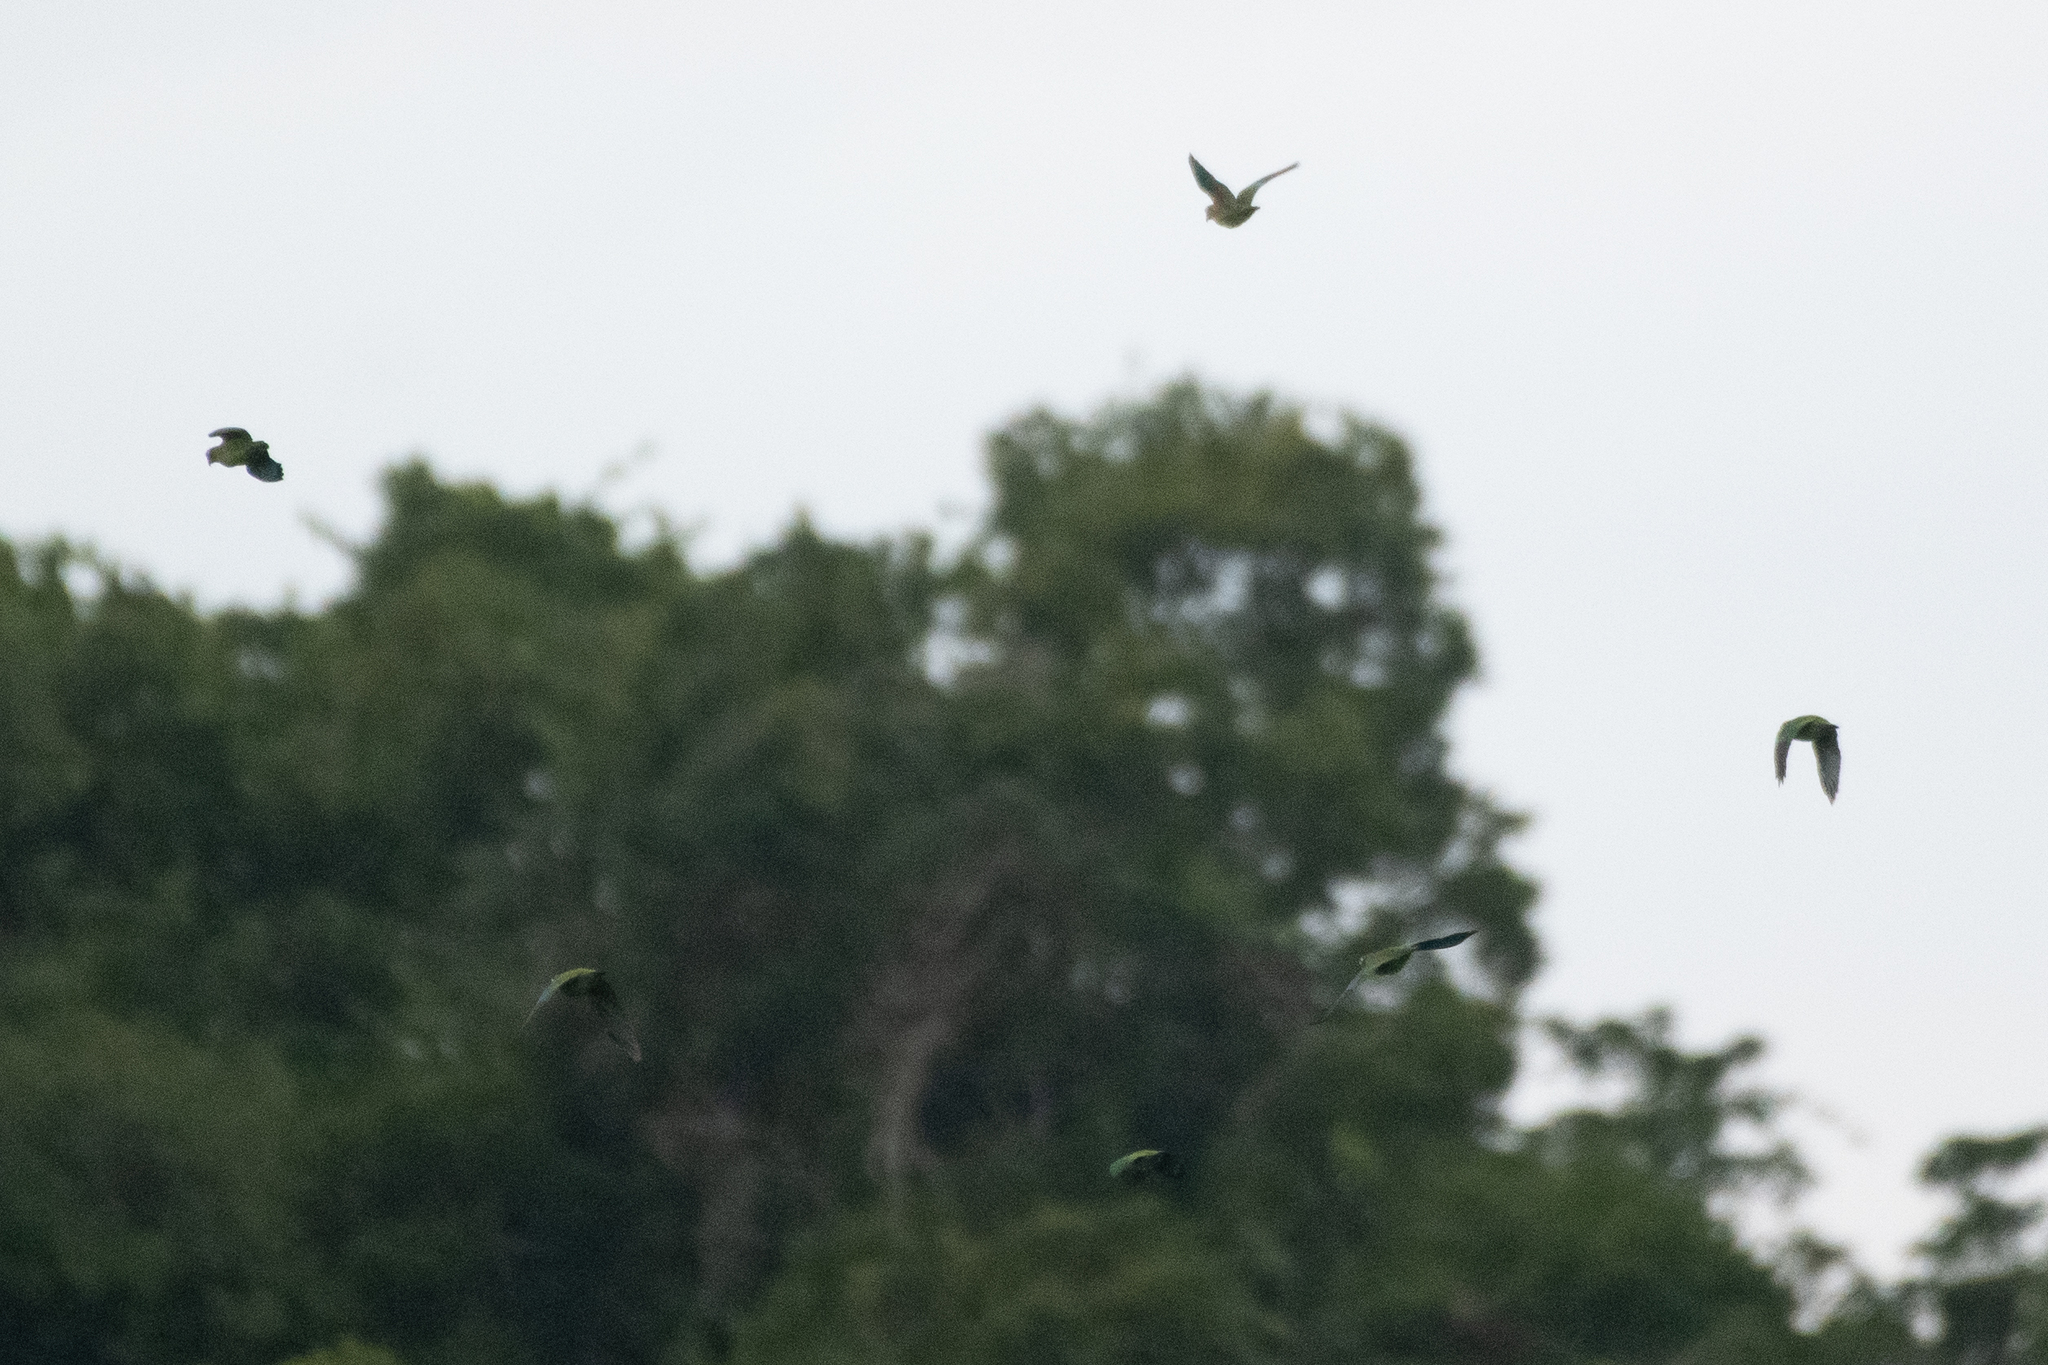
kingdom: Animalia
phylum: Chordata
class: Aves
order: Psittaciformes
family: Psittacidae
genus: Pionopsitta
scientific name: Pionopsitta haematotis
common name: Brown-hooded parrot
